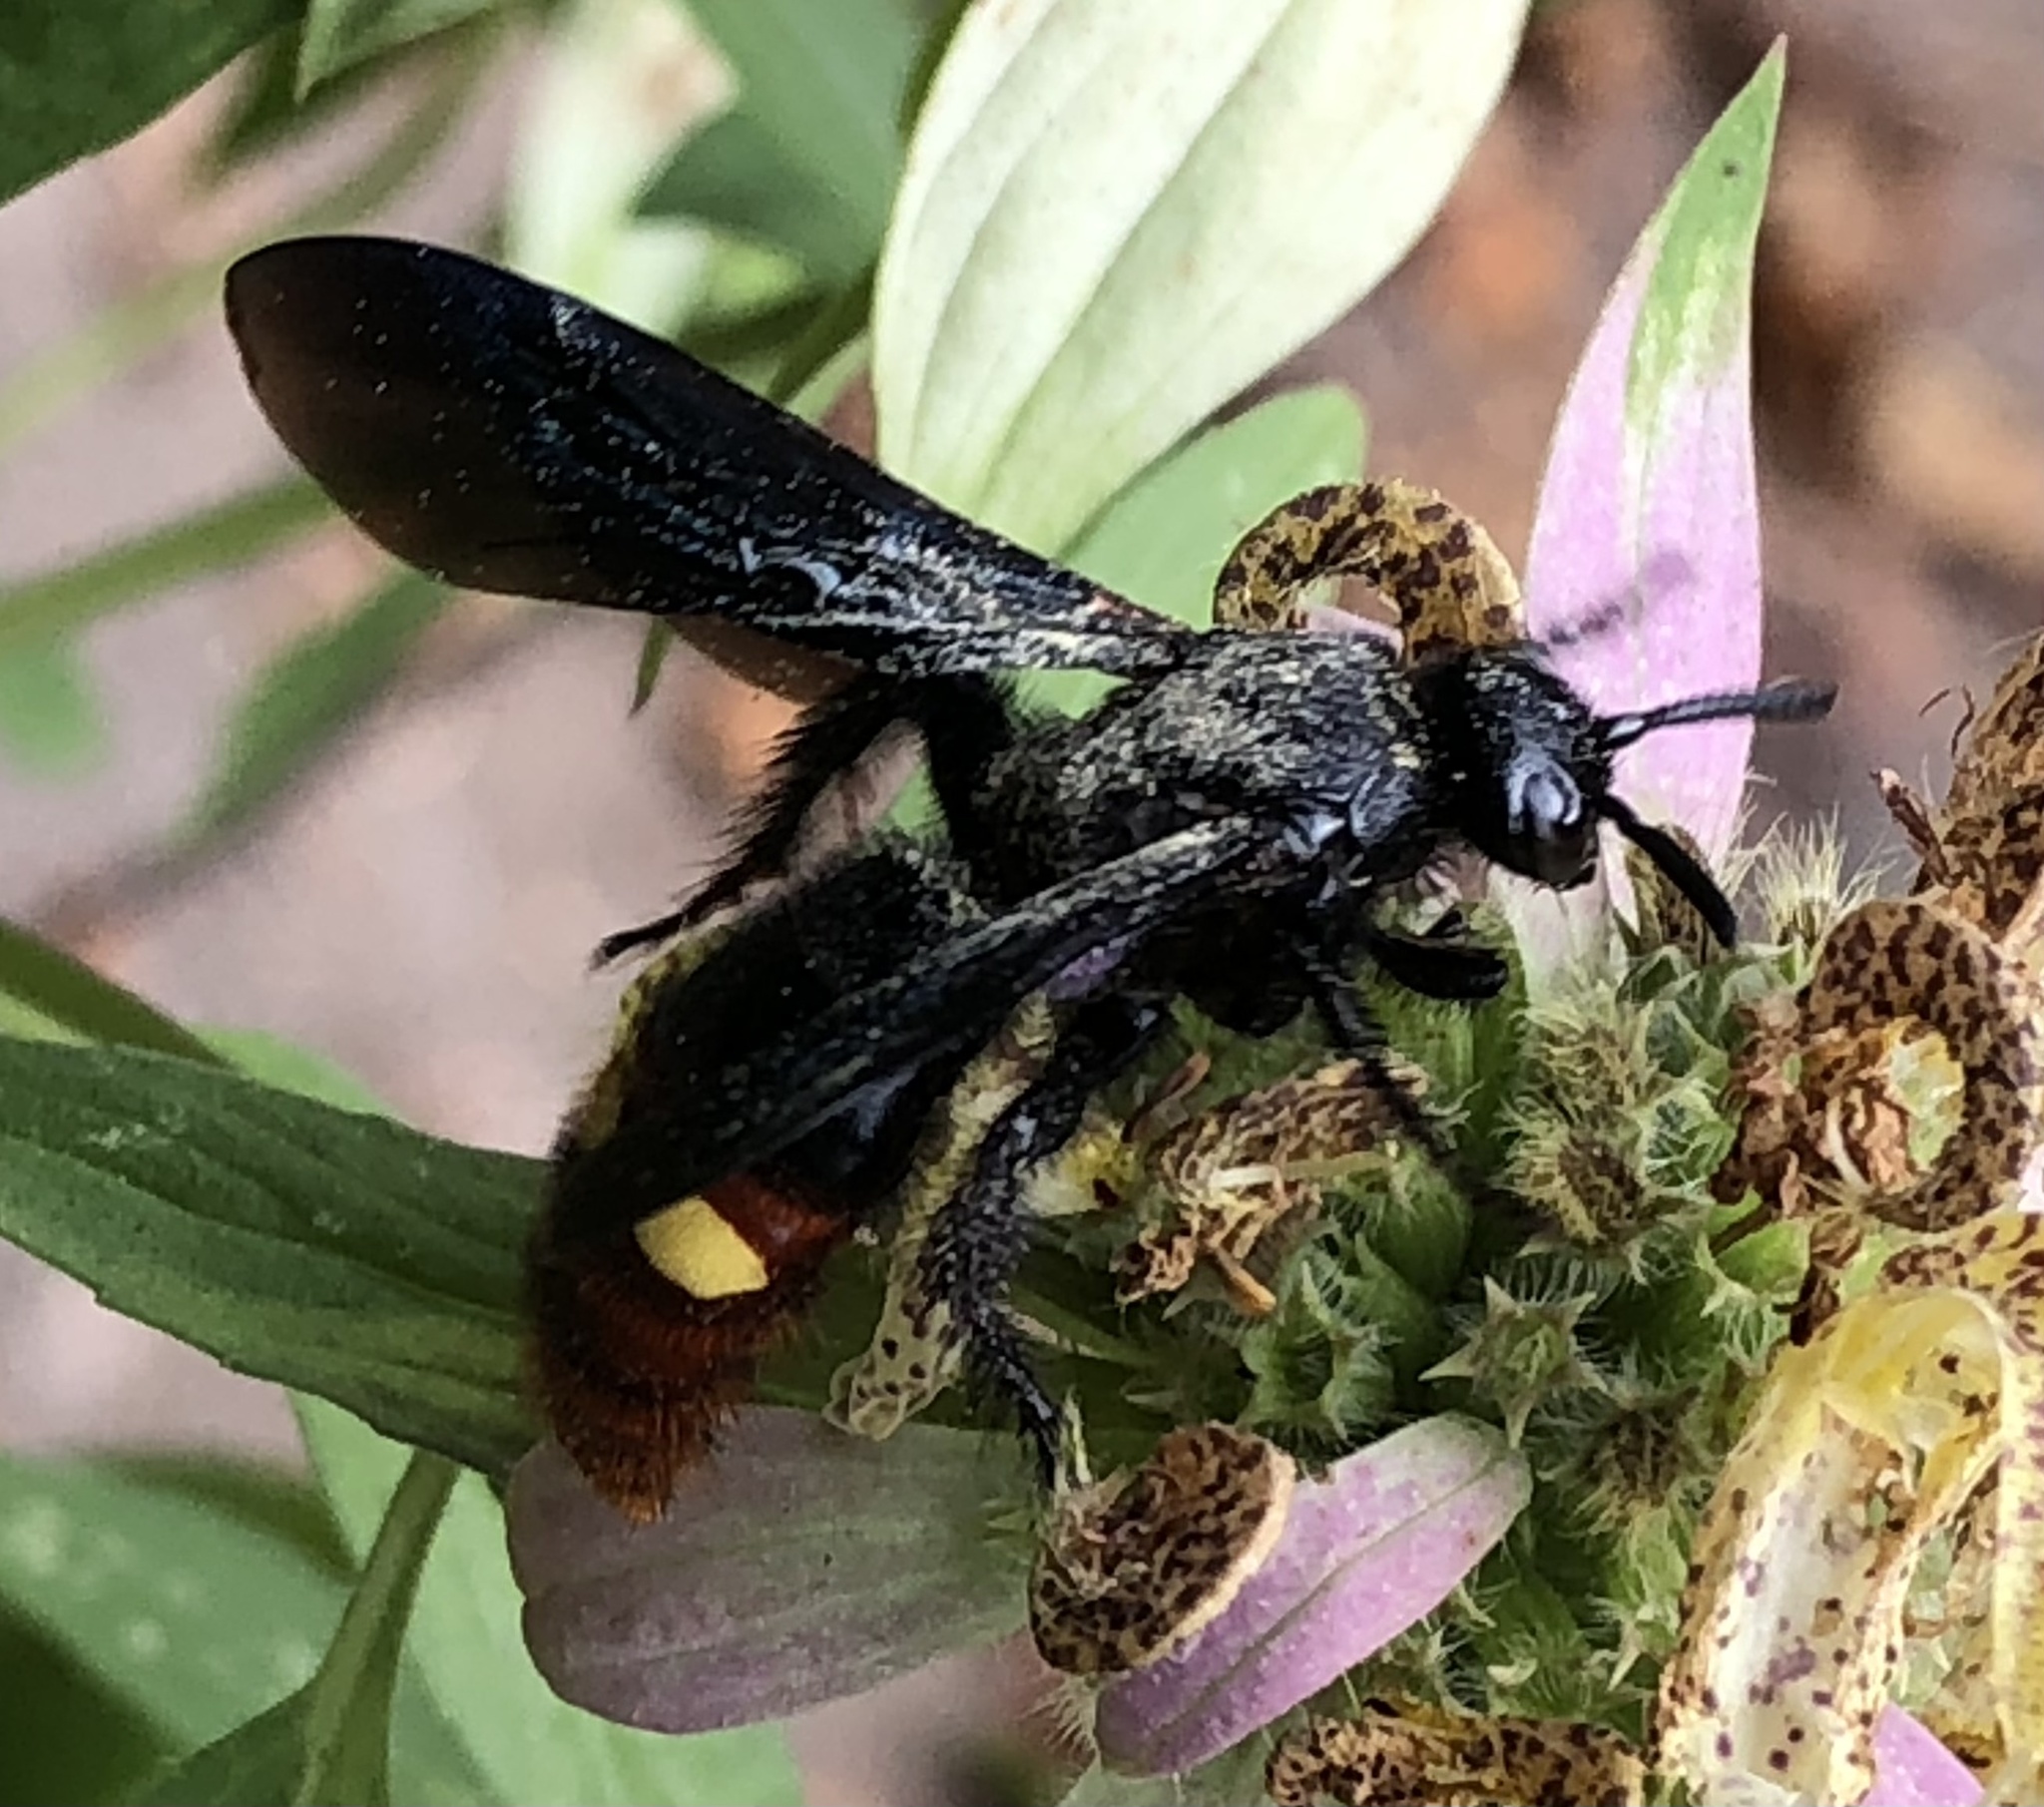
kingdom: Animalia
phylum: Arthropoda
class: Insecta
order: Hymenoptera
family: Scoliidae
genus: Scolia
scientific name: Scolia dubia
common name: Blue-winged scoliid wasp
